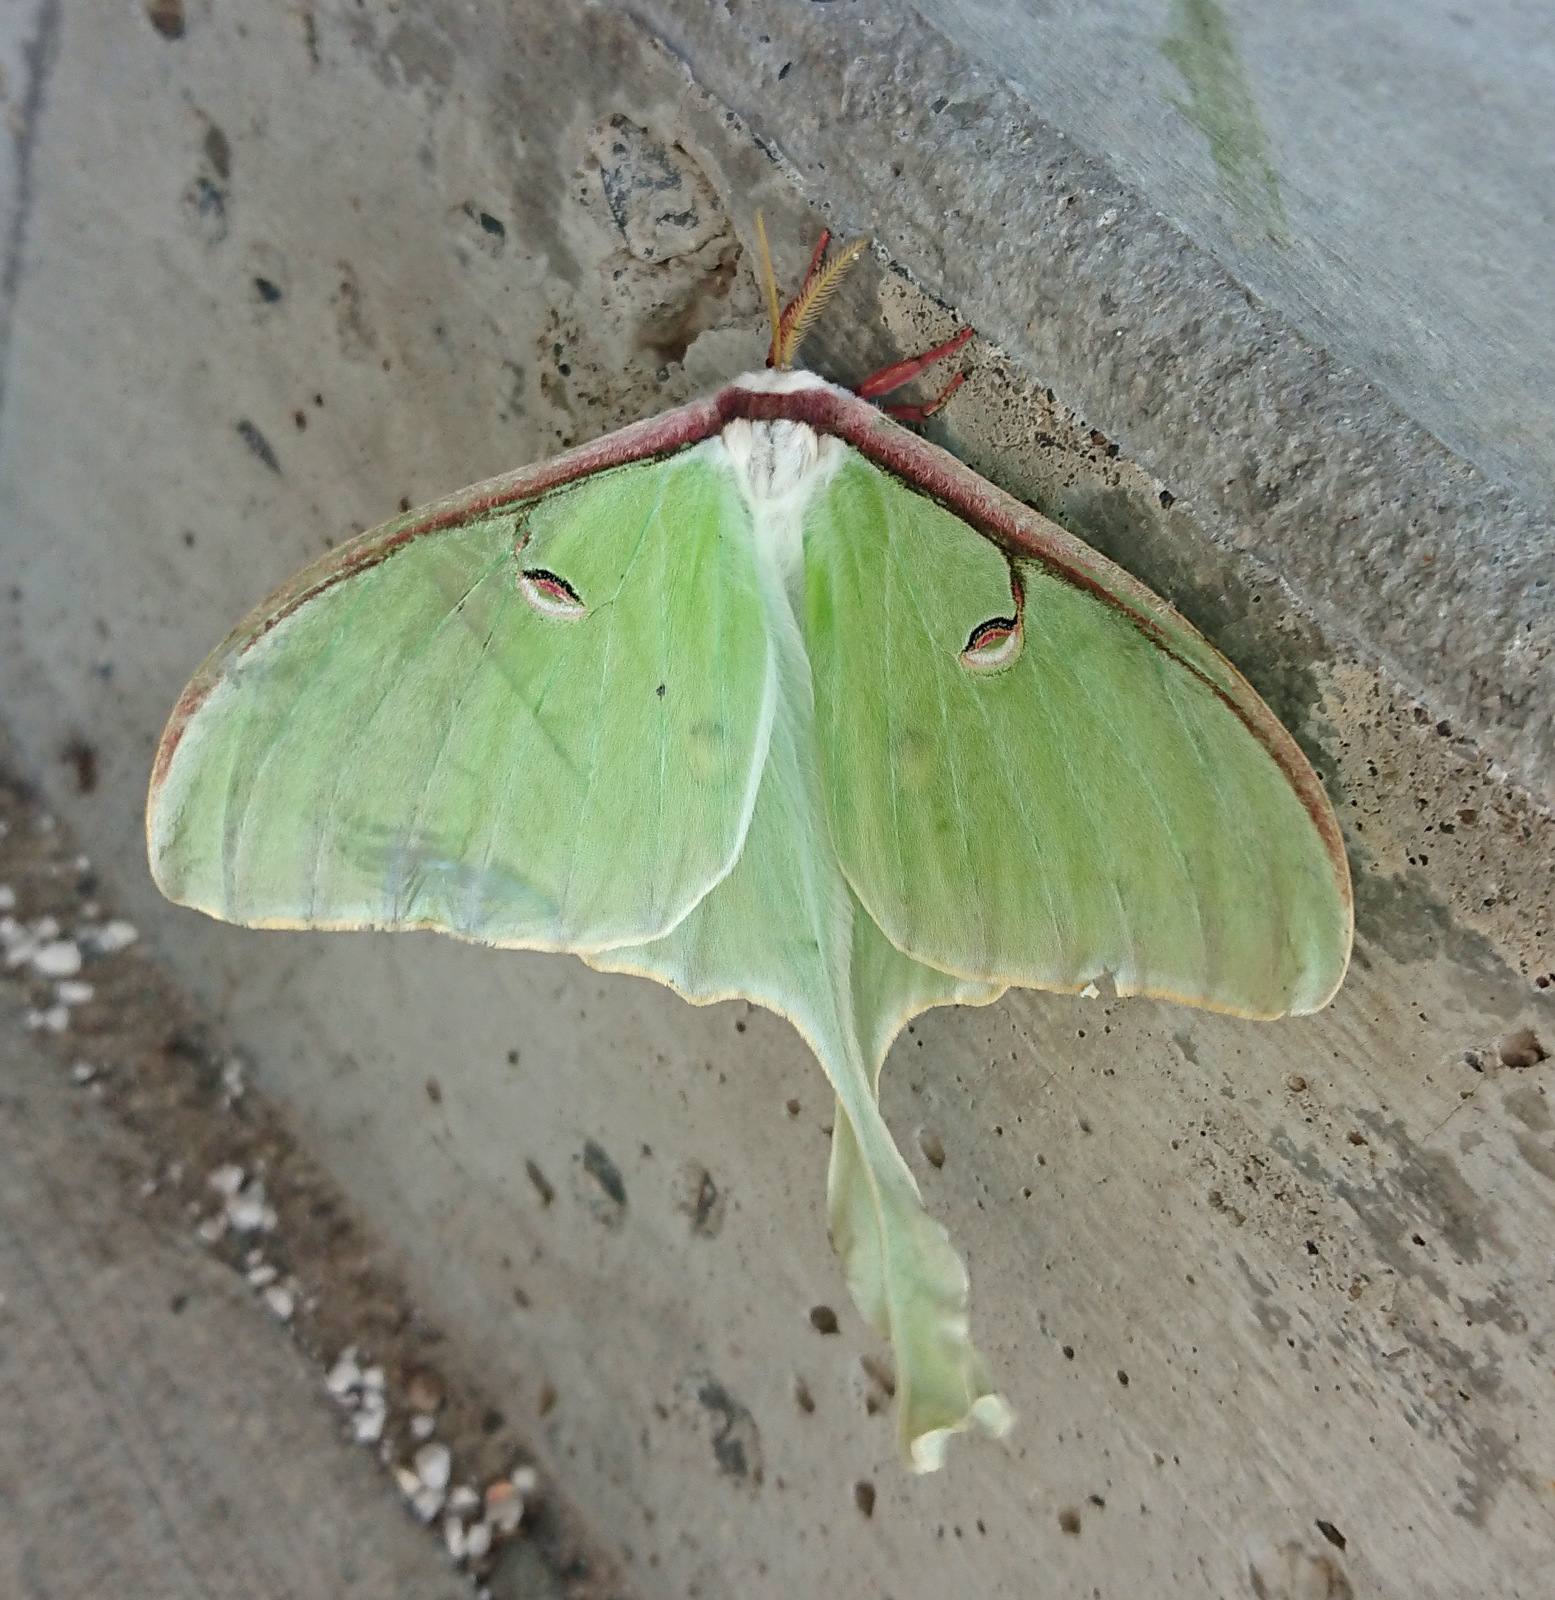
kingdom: Animalia
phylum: Arthropoda
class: Insecta
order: Lepidoptera
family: Saturniidae
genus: Actias
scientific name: Actias luna
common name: Luna moth
